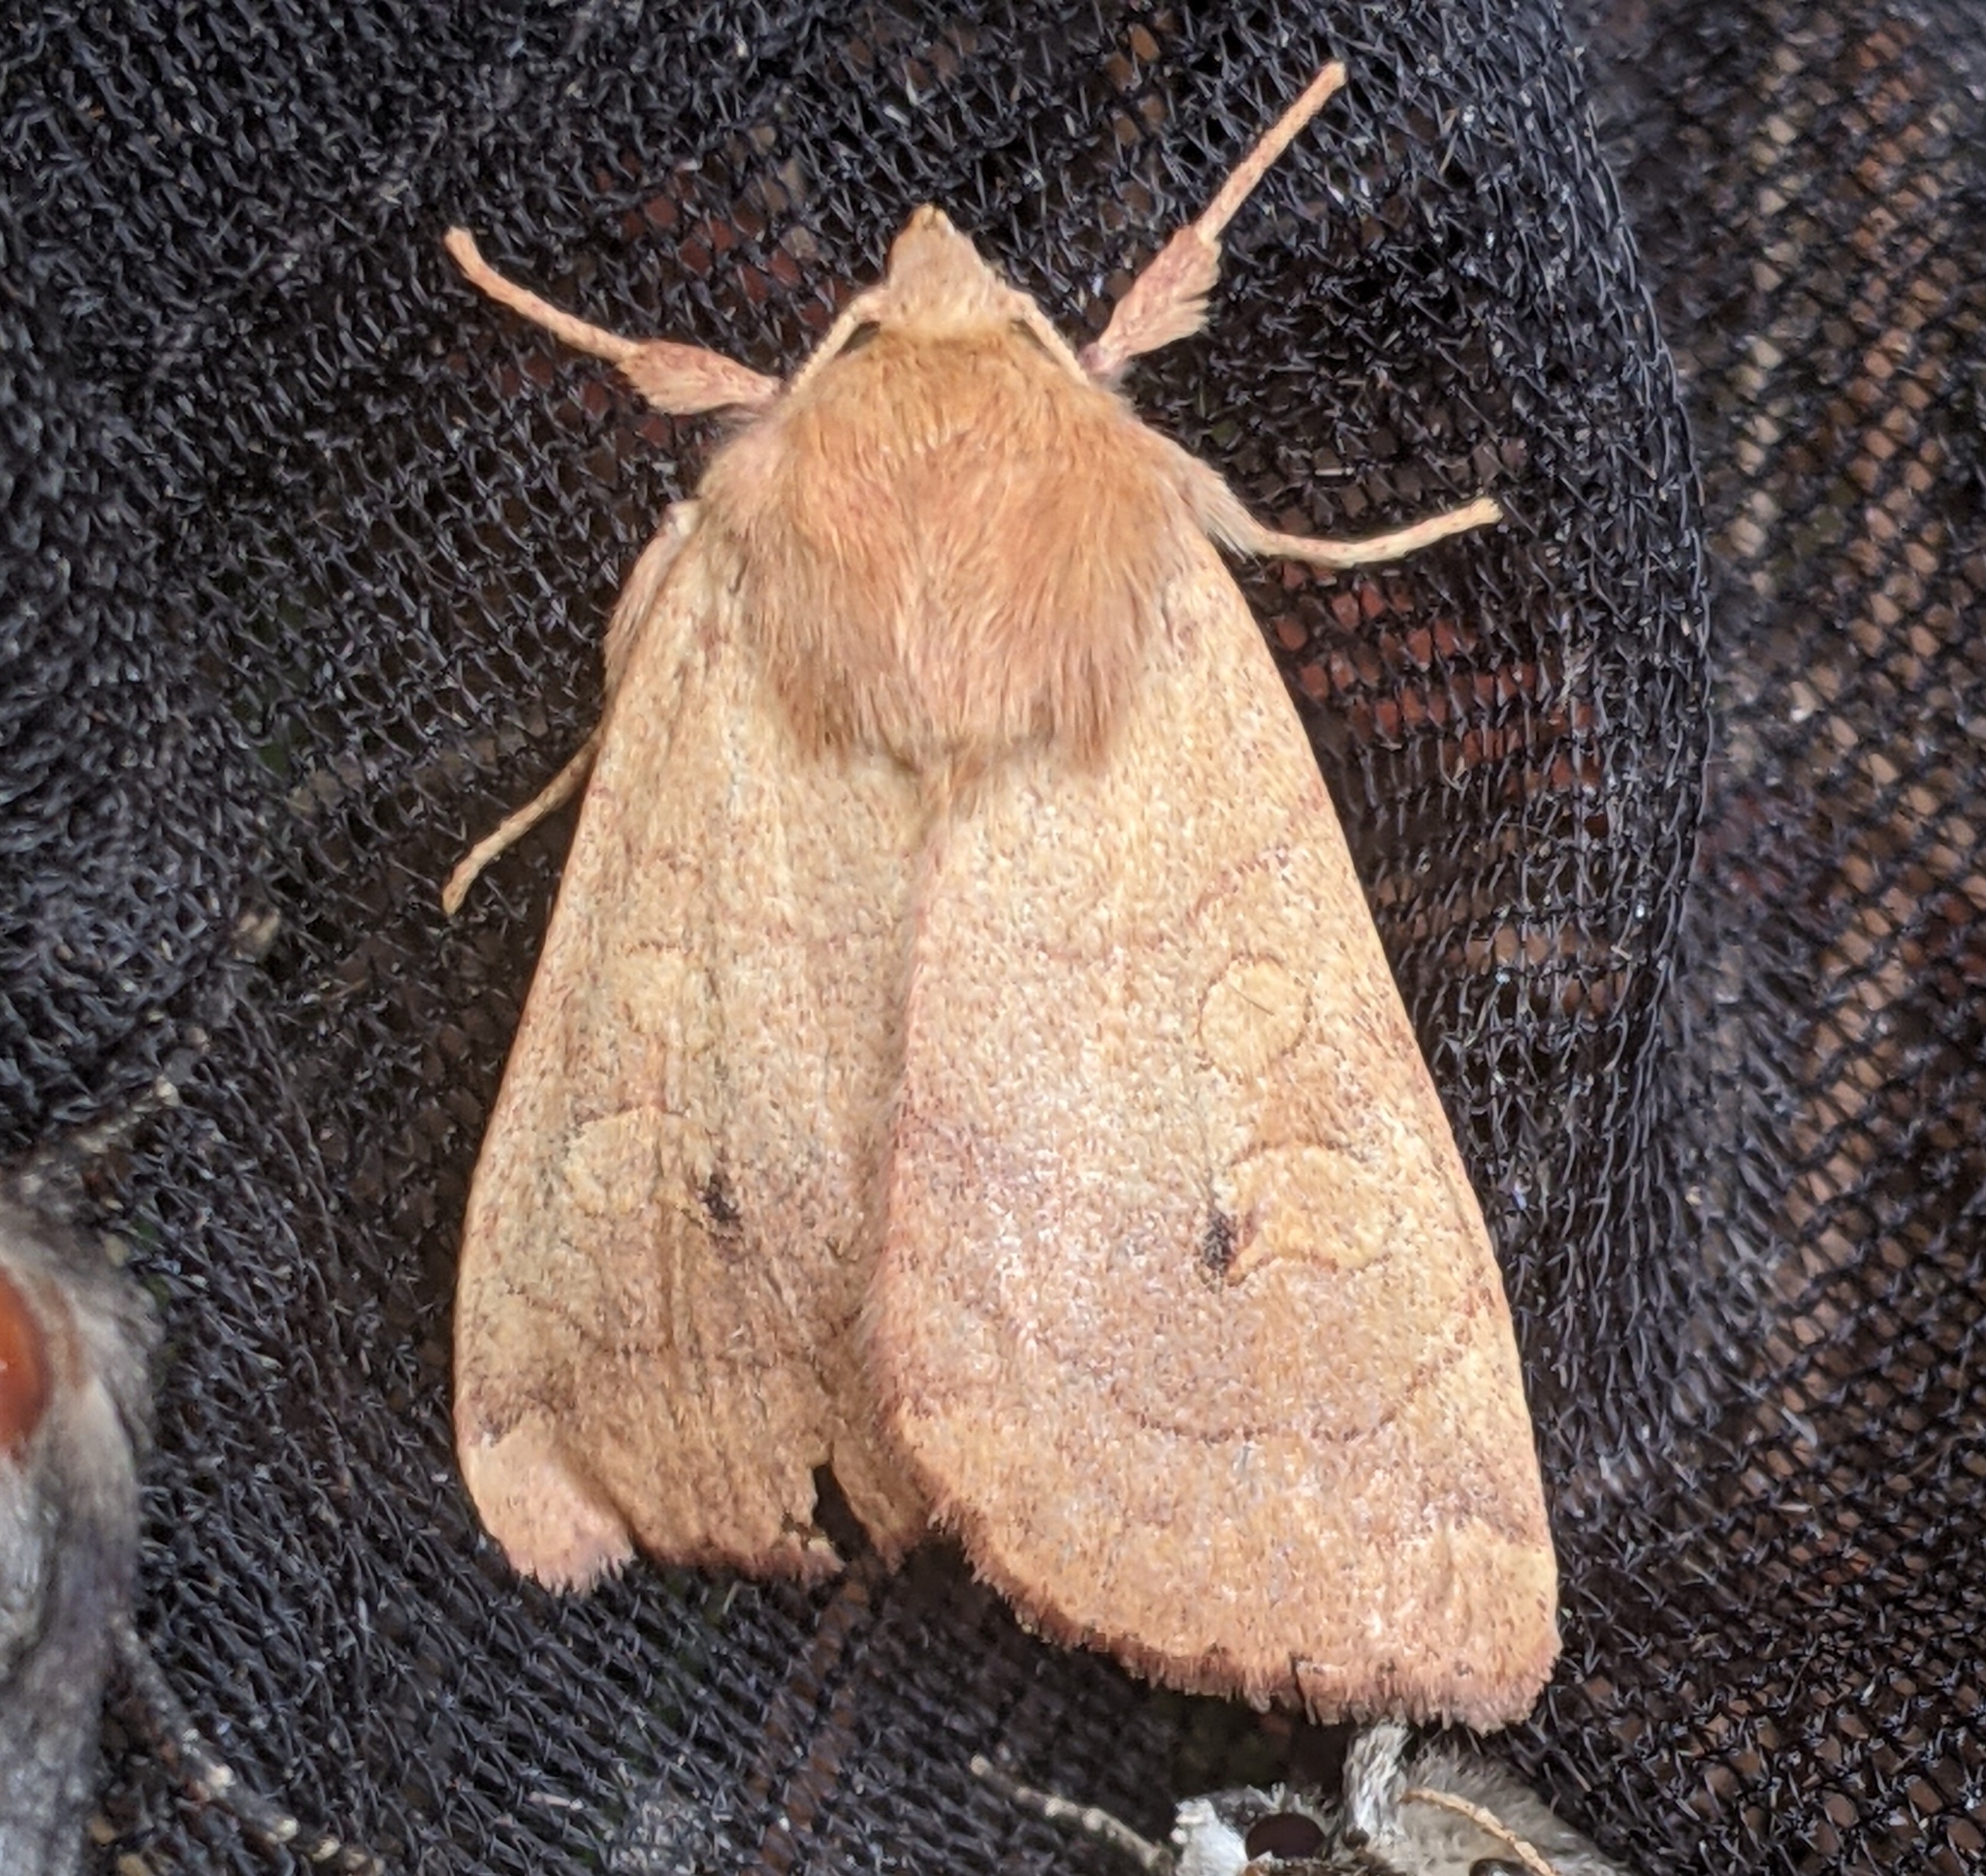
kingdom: Animalia
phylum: Arthropoda
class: Insecta
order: Lepidoptera
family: Noctuidae
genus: Enargia
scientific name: Enargia infumata
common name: Smoked sallow
